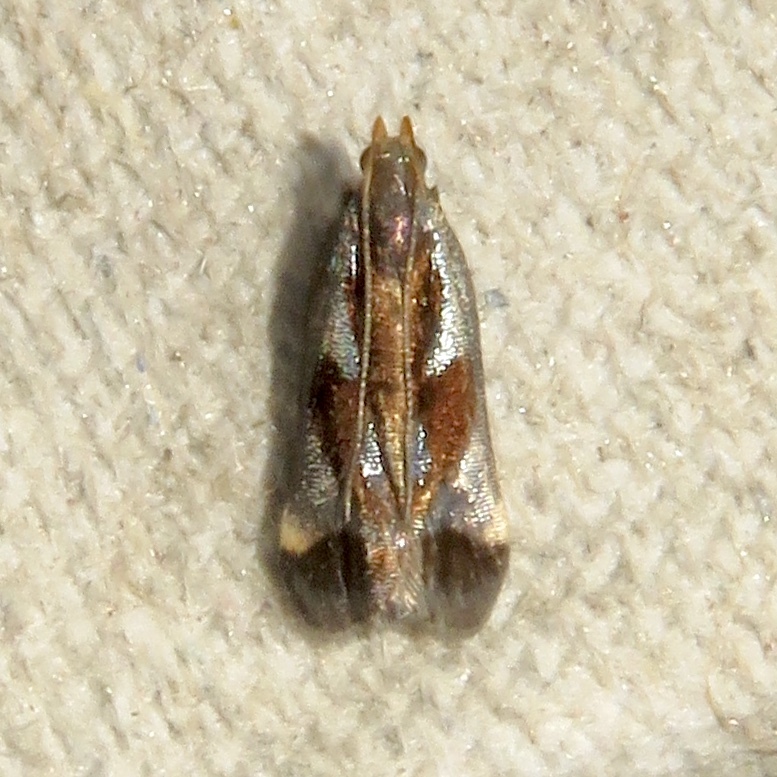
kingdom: Animalia
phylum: Arthropoda
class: Insecta
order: Lepidoptera
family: Gelechiidae
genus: Dichomeris
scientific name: Dichomeris ochripalpella
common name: Shining dichomeris moth
